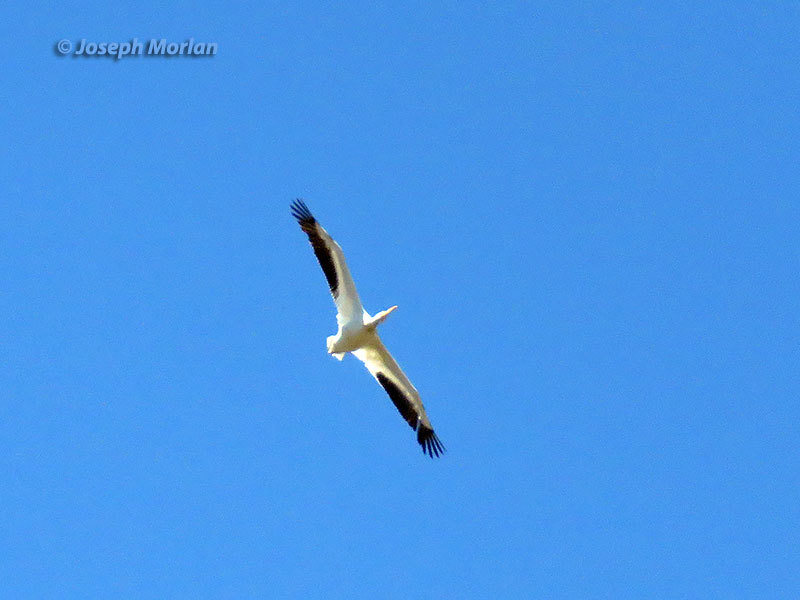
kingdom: Animalia
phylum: Chordata
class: Aves
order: Pelecaniformes
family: Pelecanidae
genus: Pelecanus
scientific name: Pelecanus erythrorhynchos
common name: American white pelican
